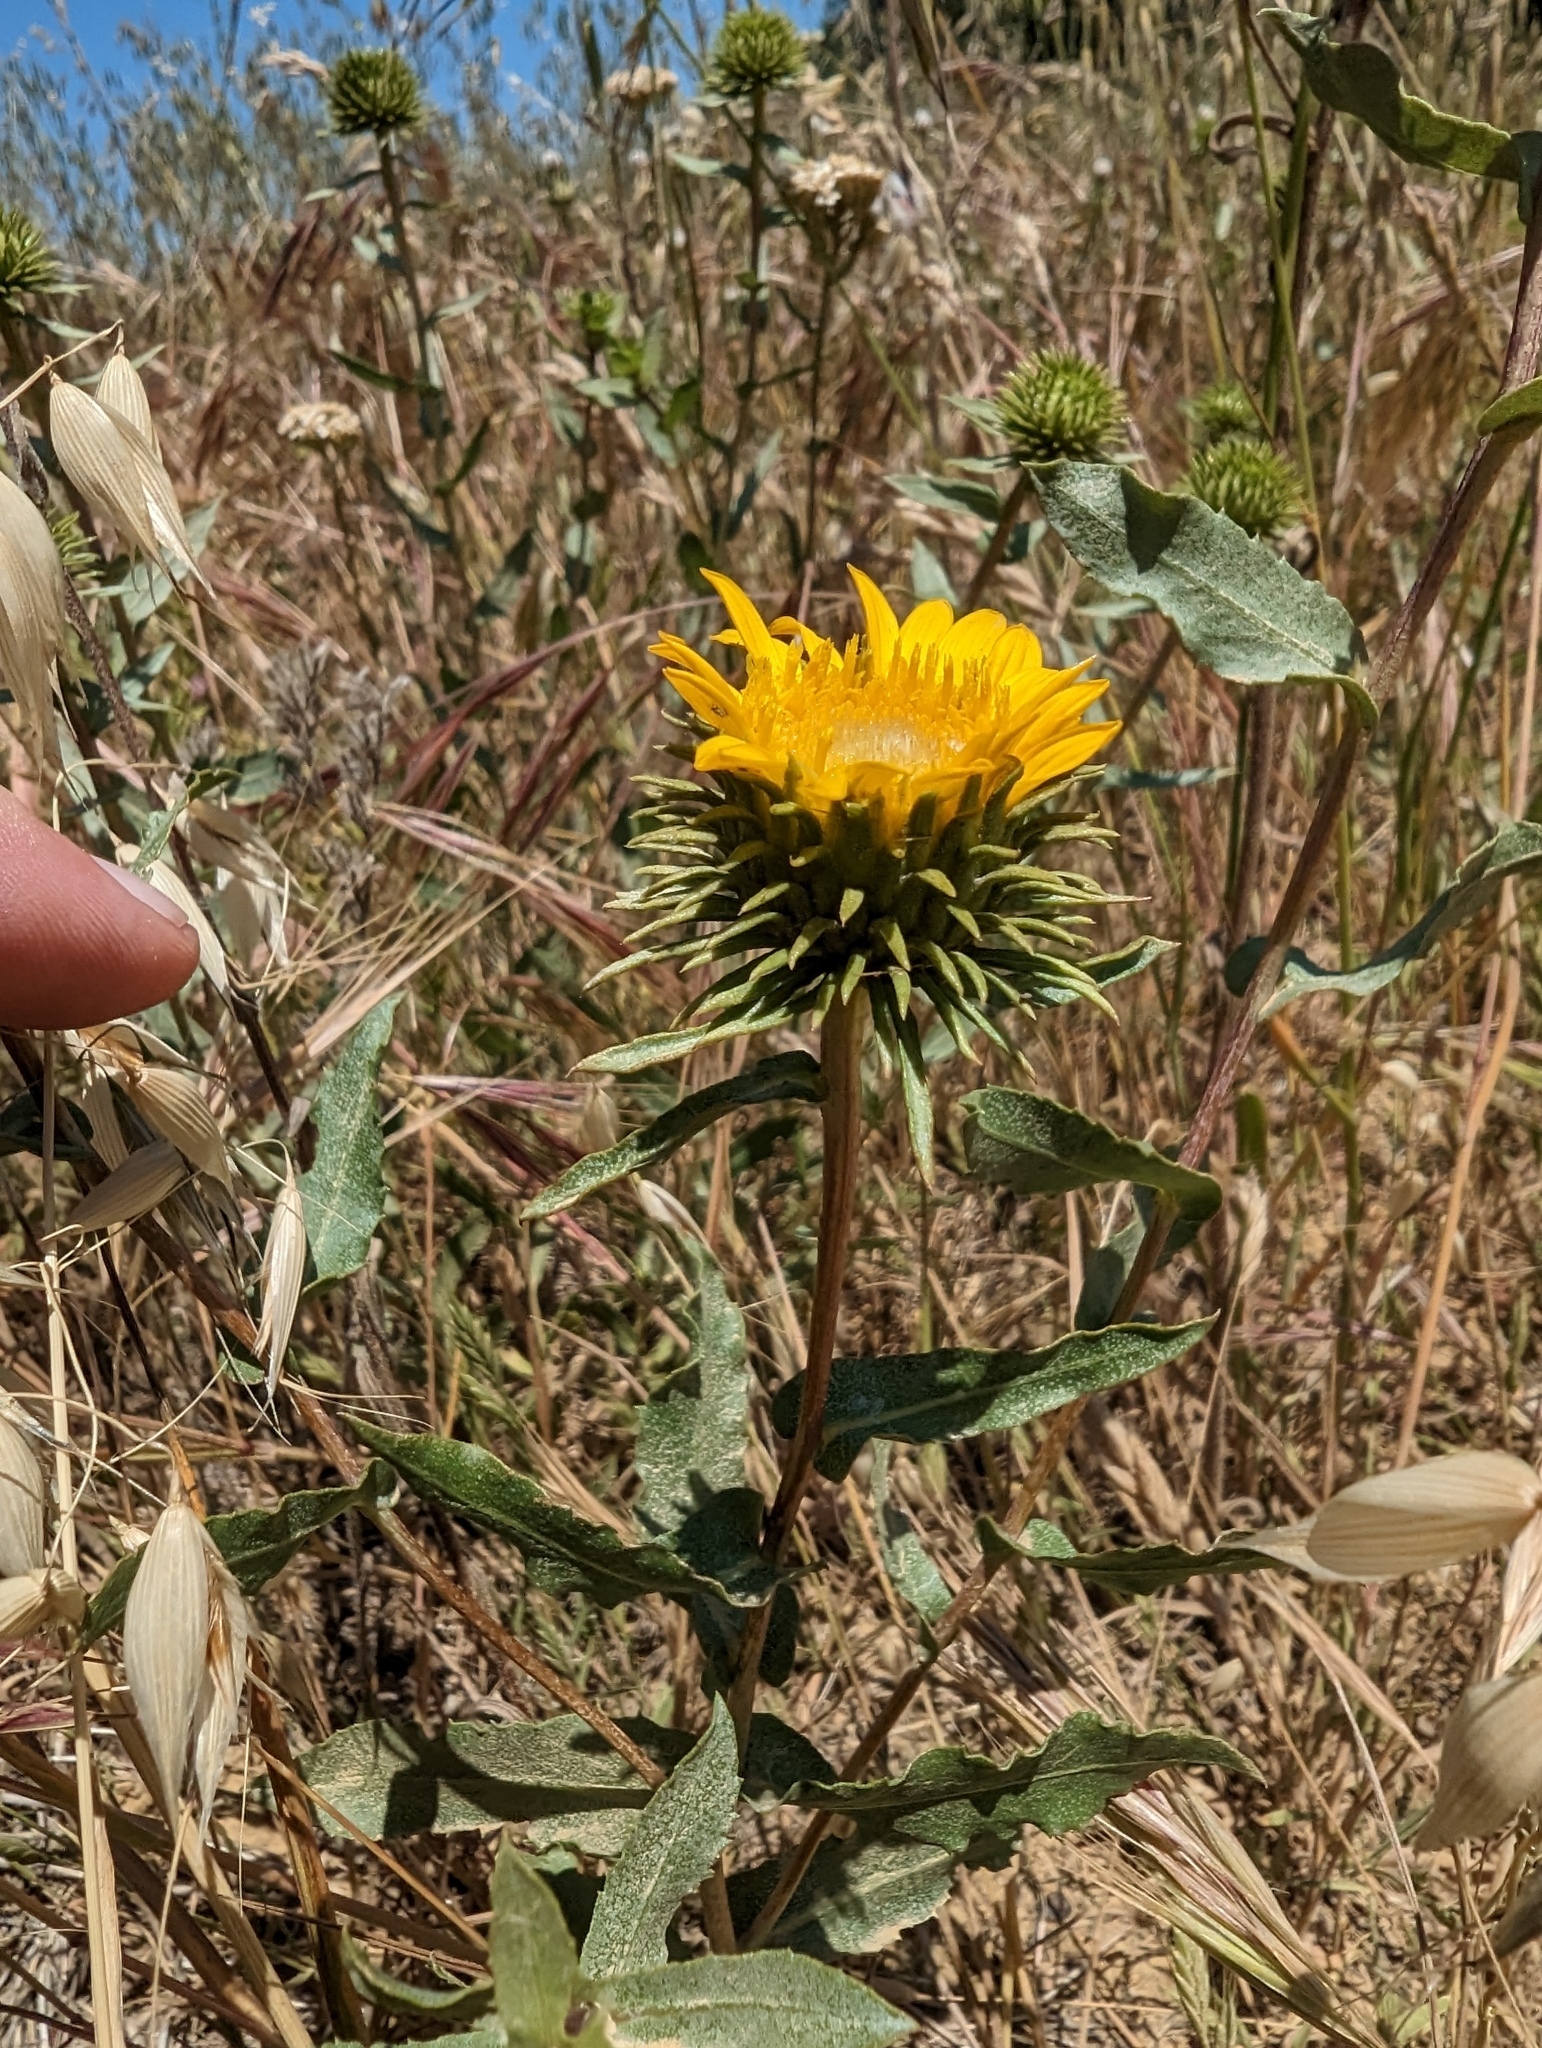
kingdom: Plantae
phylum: Tracheophyta
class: Magnoliopsida
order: Asterales
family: Asteraceae
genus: Grindelia
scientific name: Grindelia hirsutula
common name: Hairy gumweed
